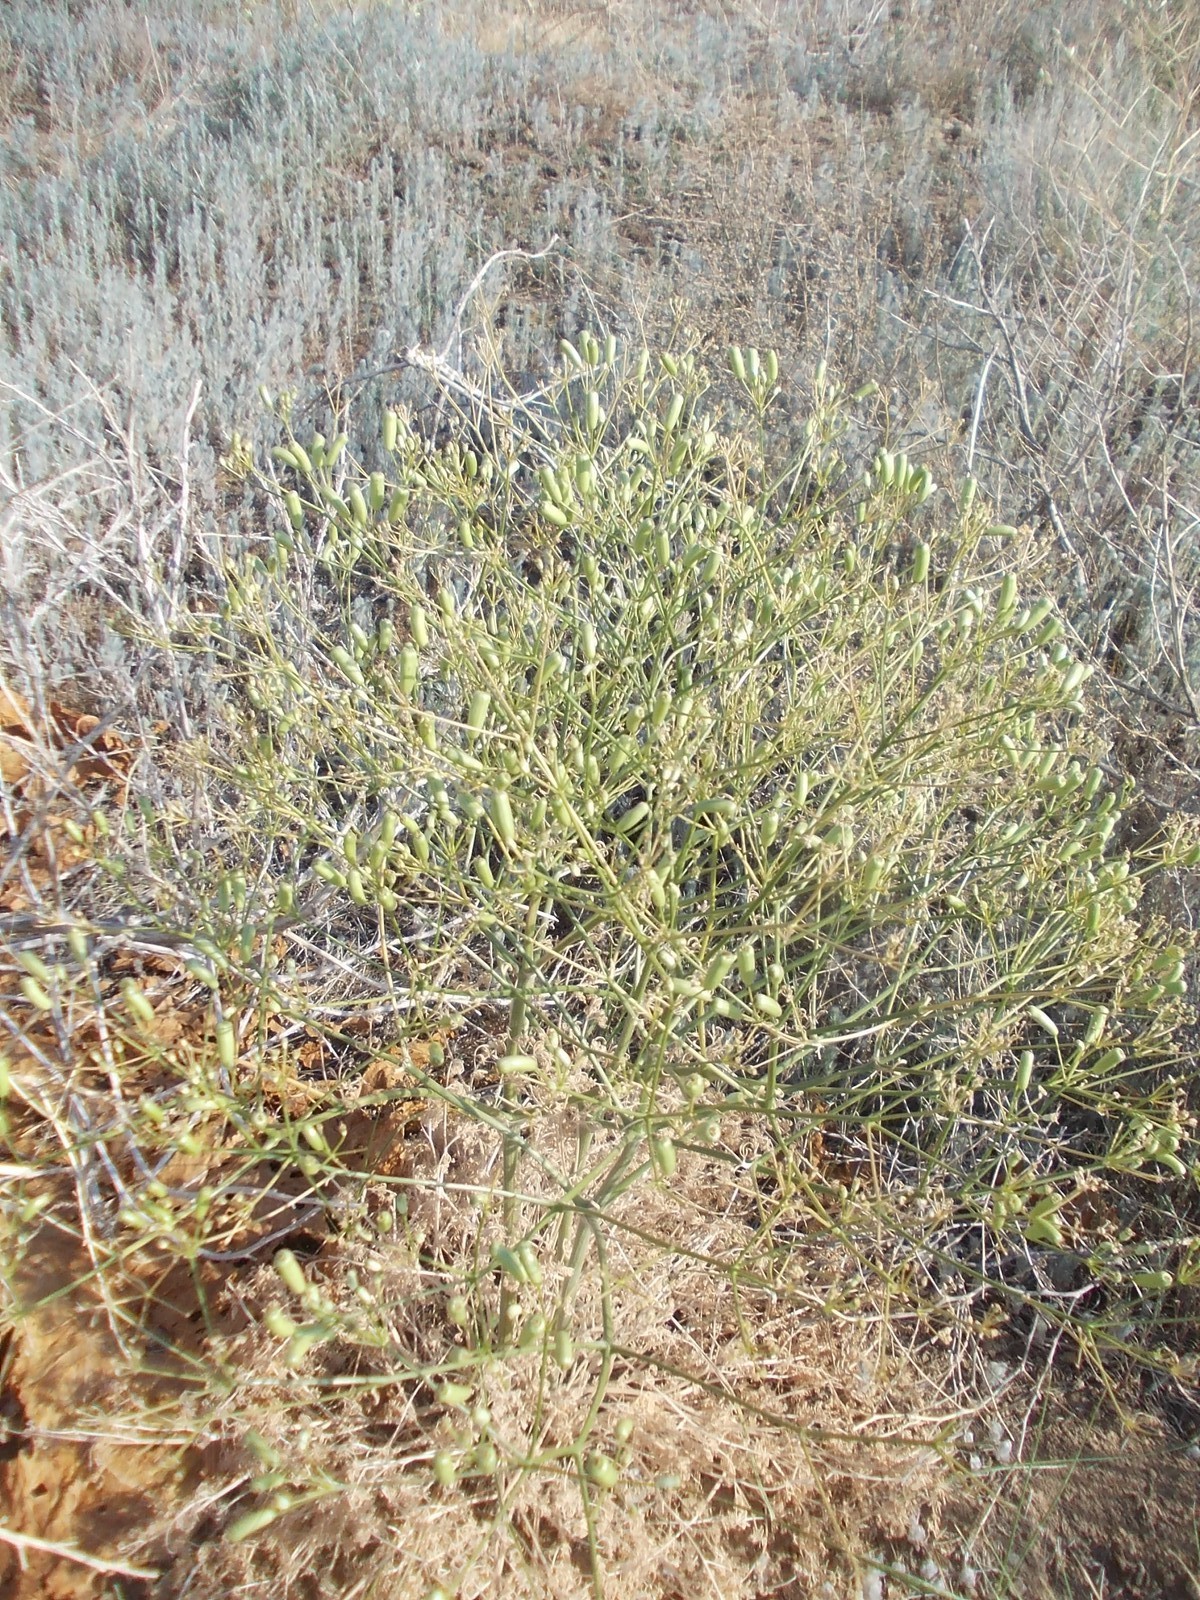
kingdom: Plantae
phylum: Tracheophyta
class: Magnoliopsida
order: Apiales
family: Apiaceae
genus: Prangos
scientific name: Prangos odontalgica
